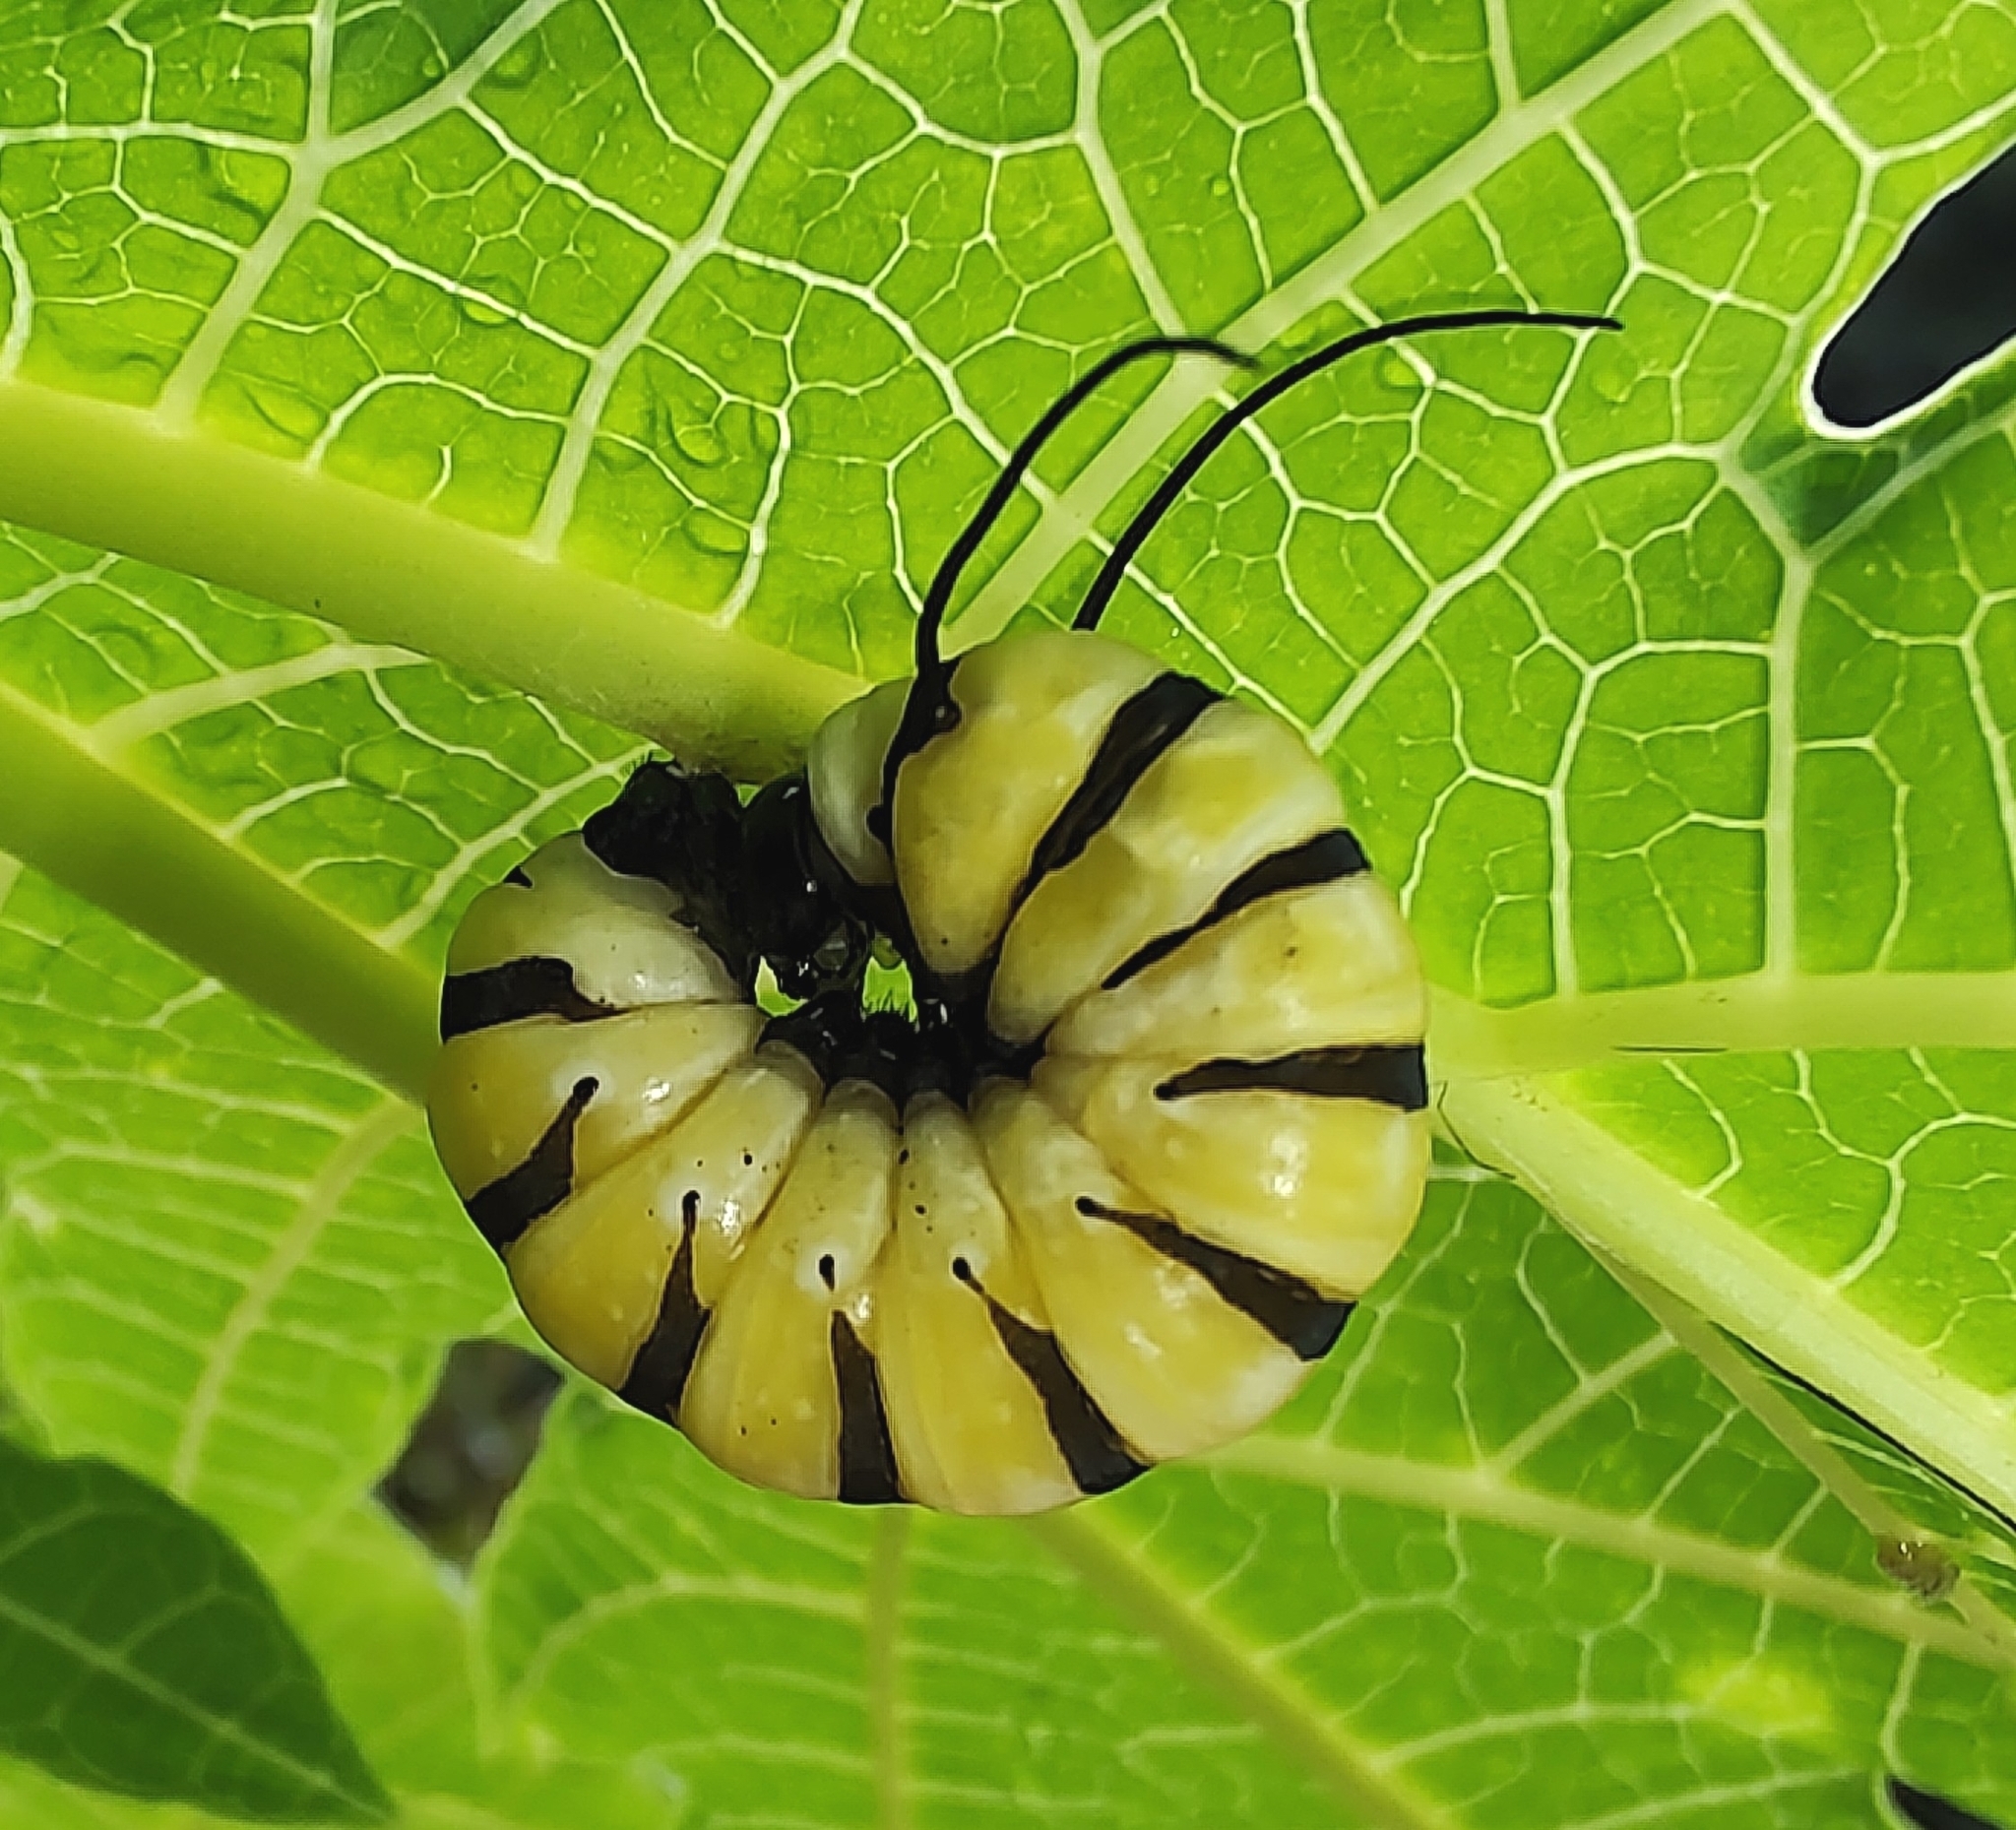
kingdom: Animalia
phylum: Arthropoda
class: Insecta
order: Lepidoptera
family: Nymphalidae
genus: Lycorea
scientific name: Lycorea cleobaea
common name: Tiger mimic-queen
